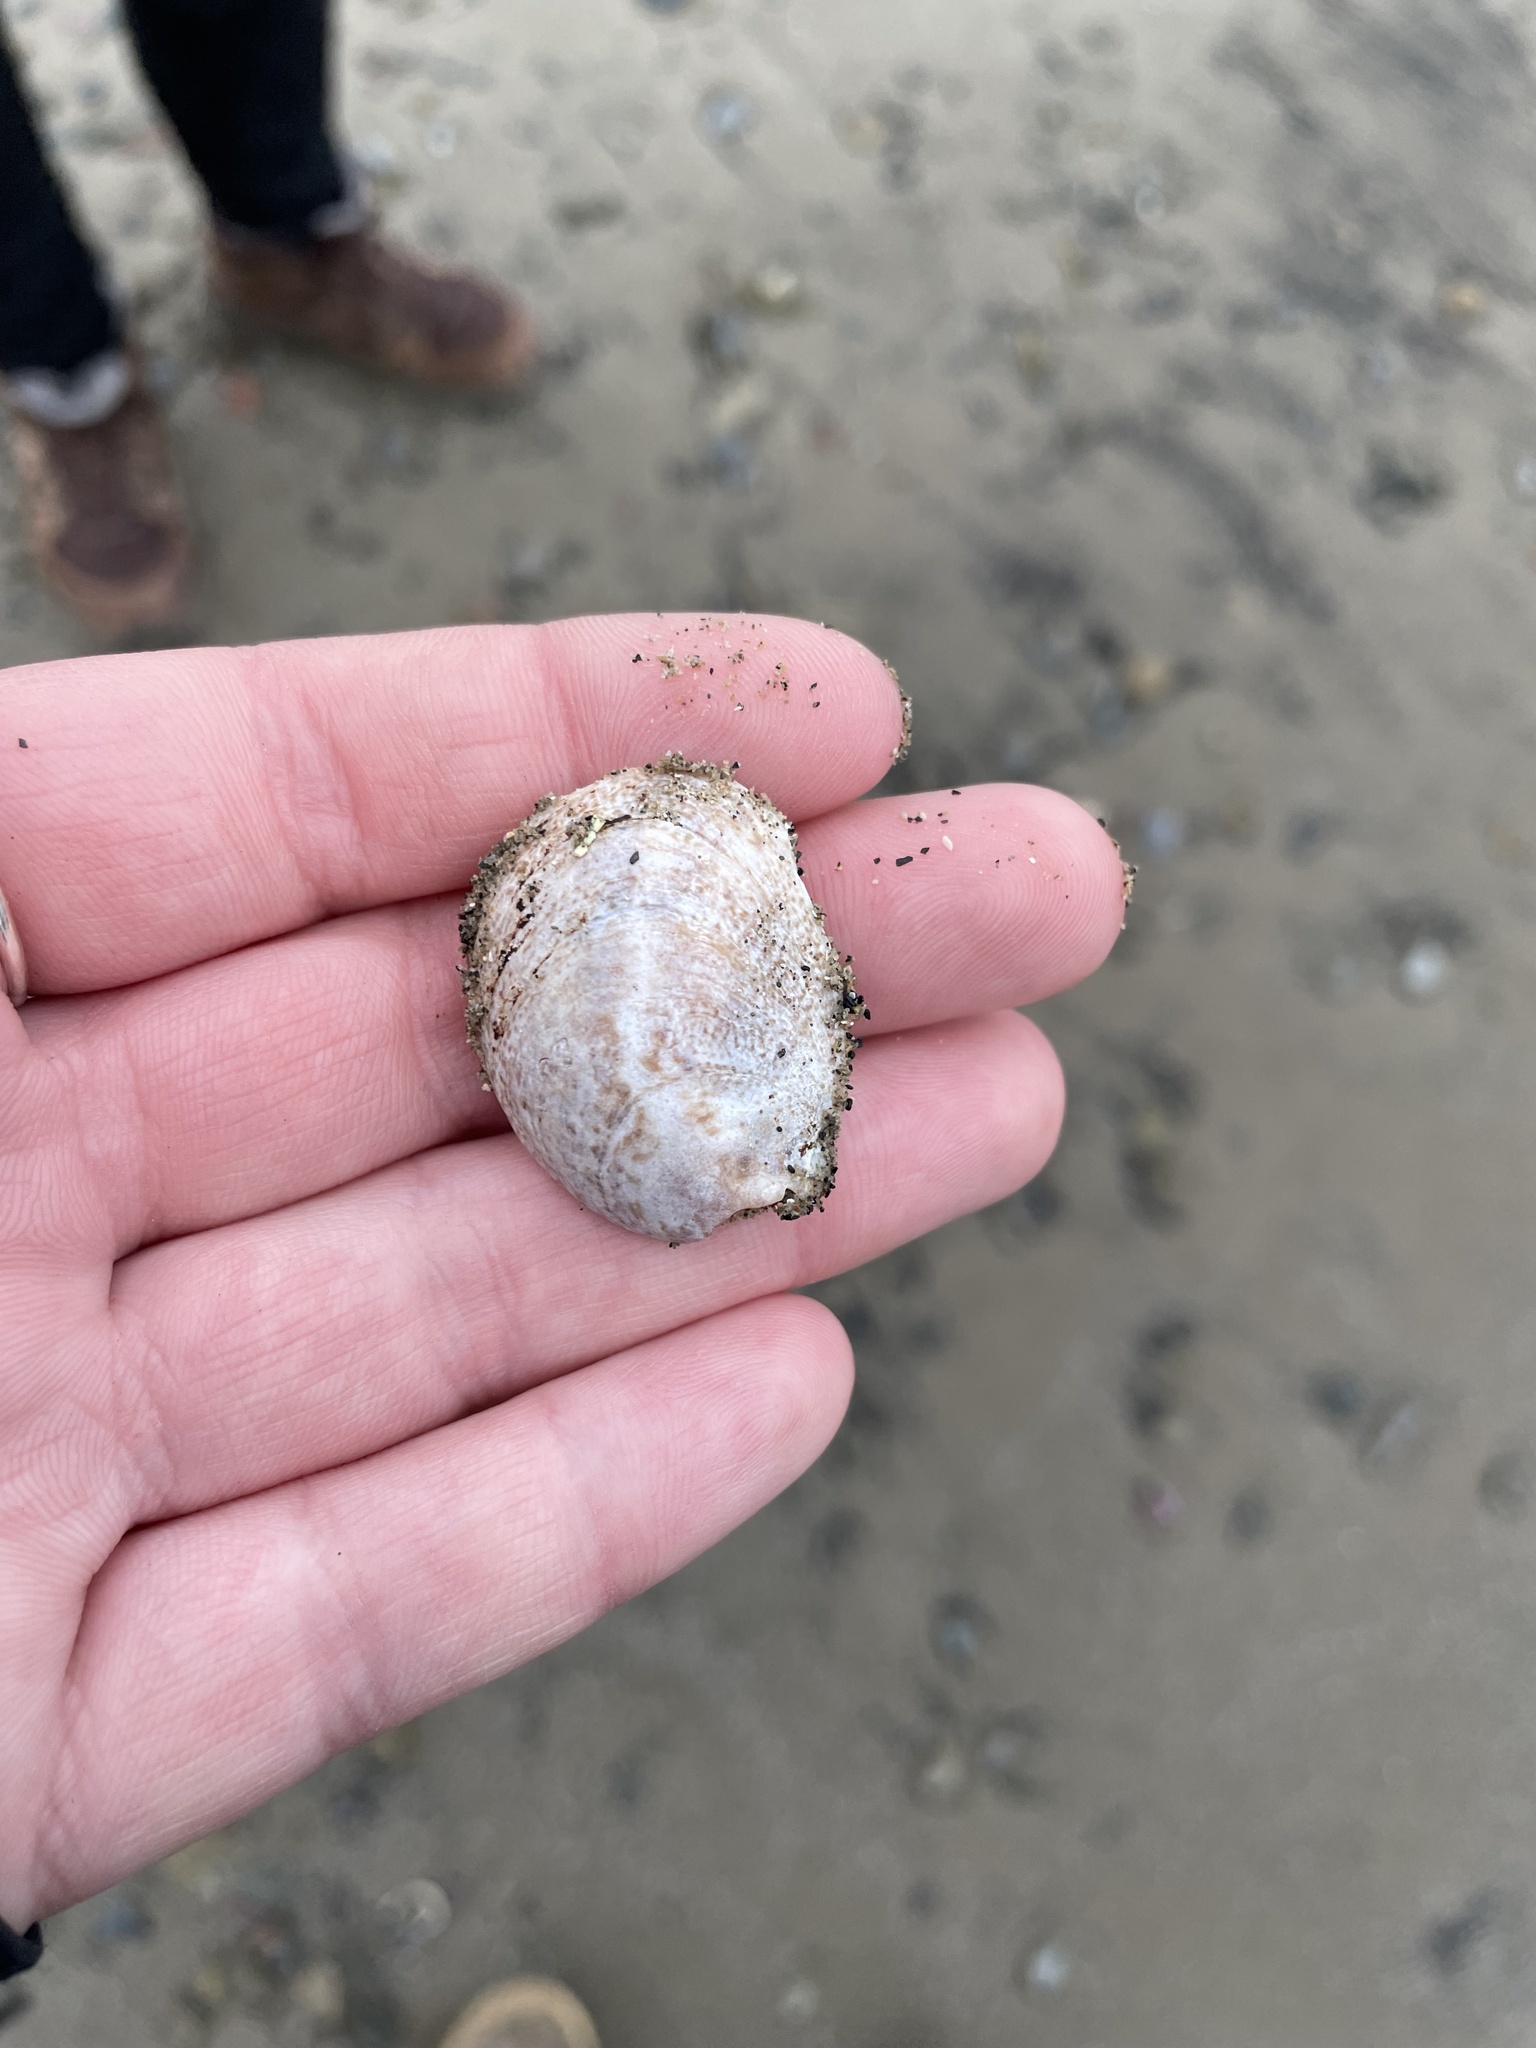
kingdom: Animalia
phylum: Mollusca
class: Gastropoda
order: Littorinimorpha
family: Calyptraeidae
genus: Crepidula
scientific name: Crepidula fornicata
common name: Slipper limpet
